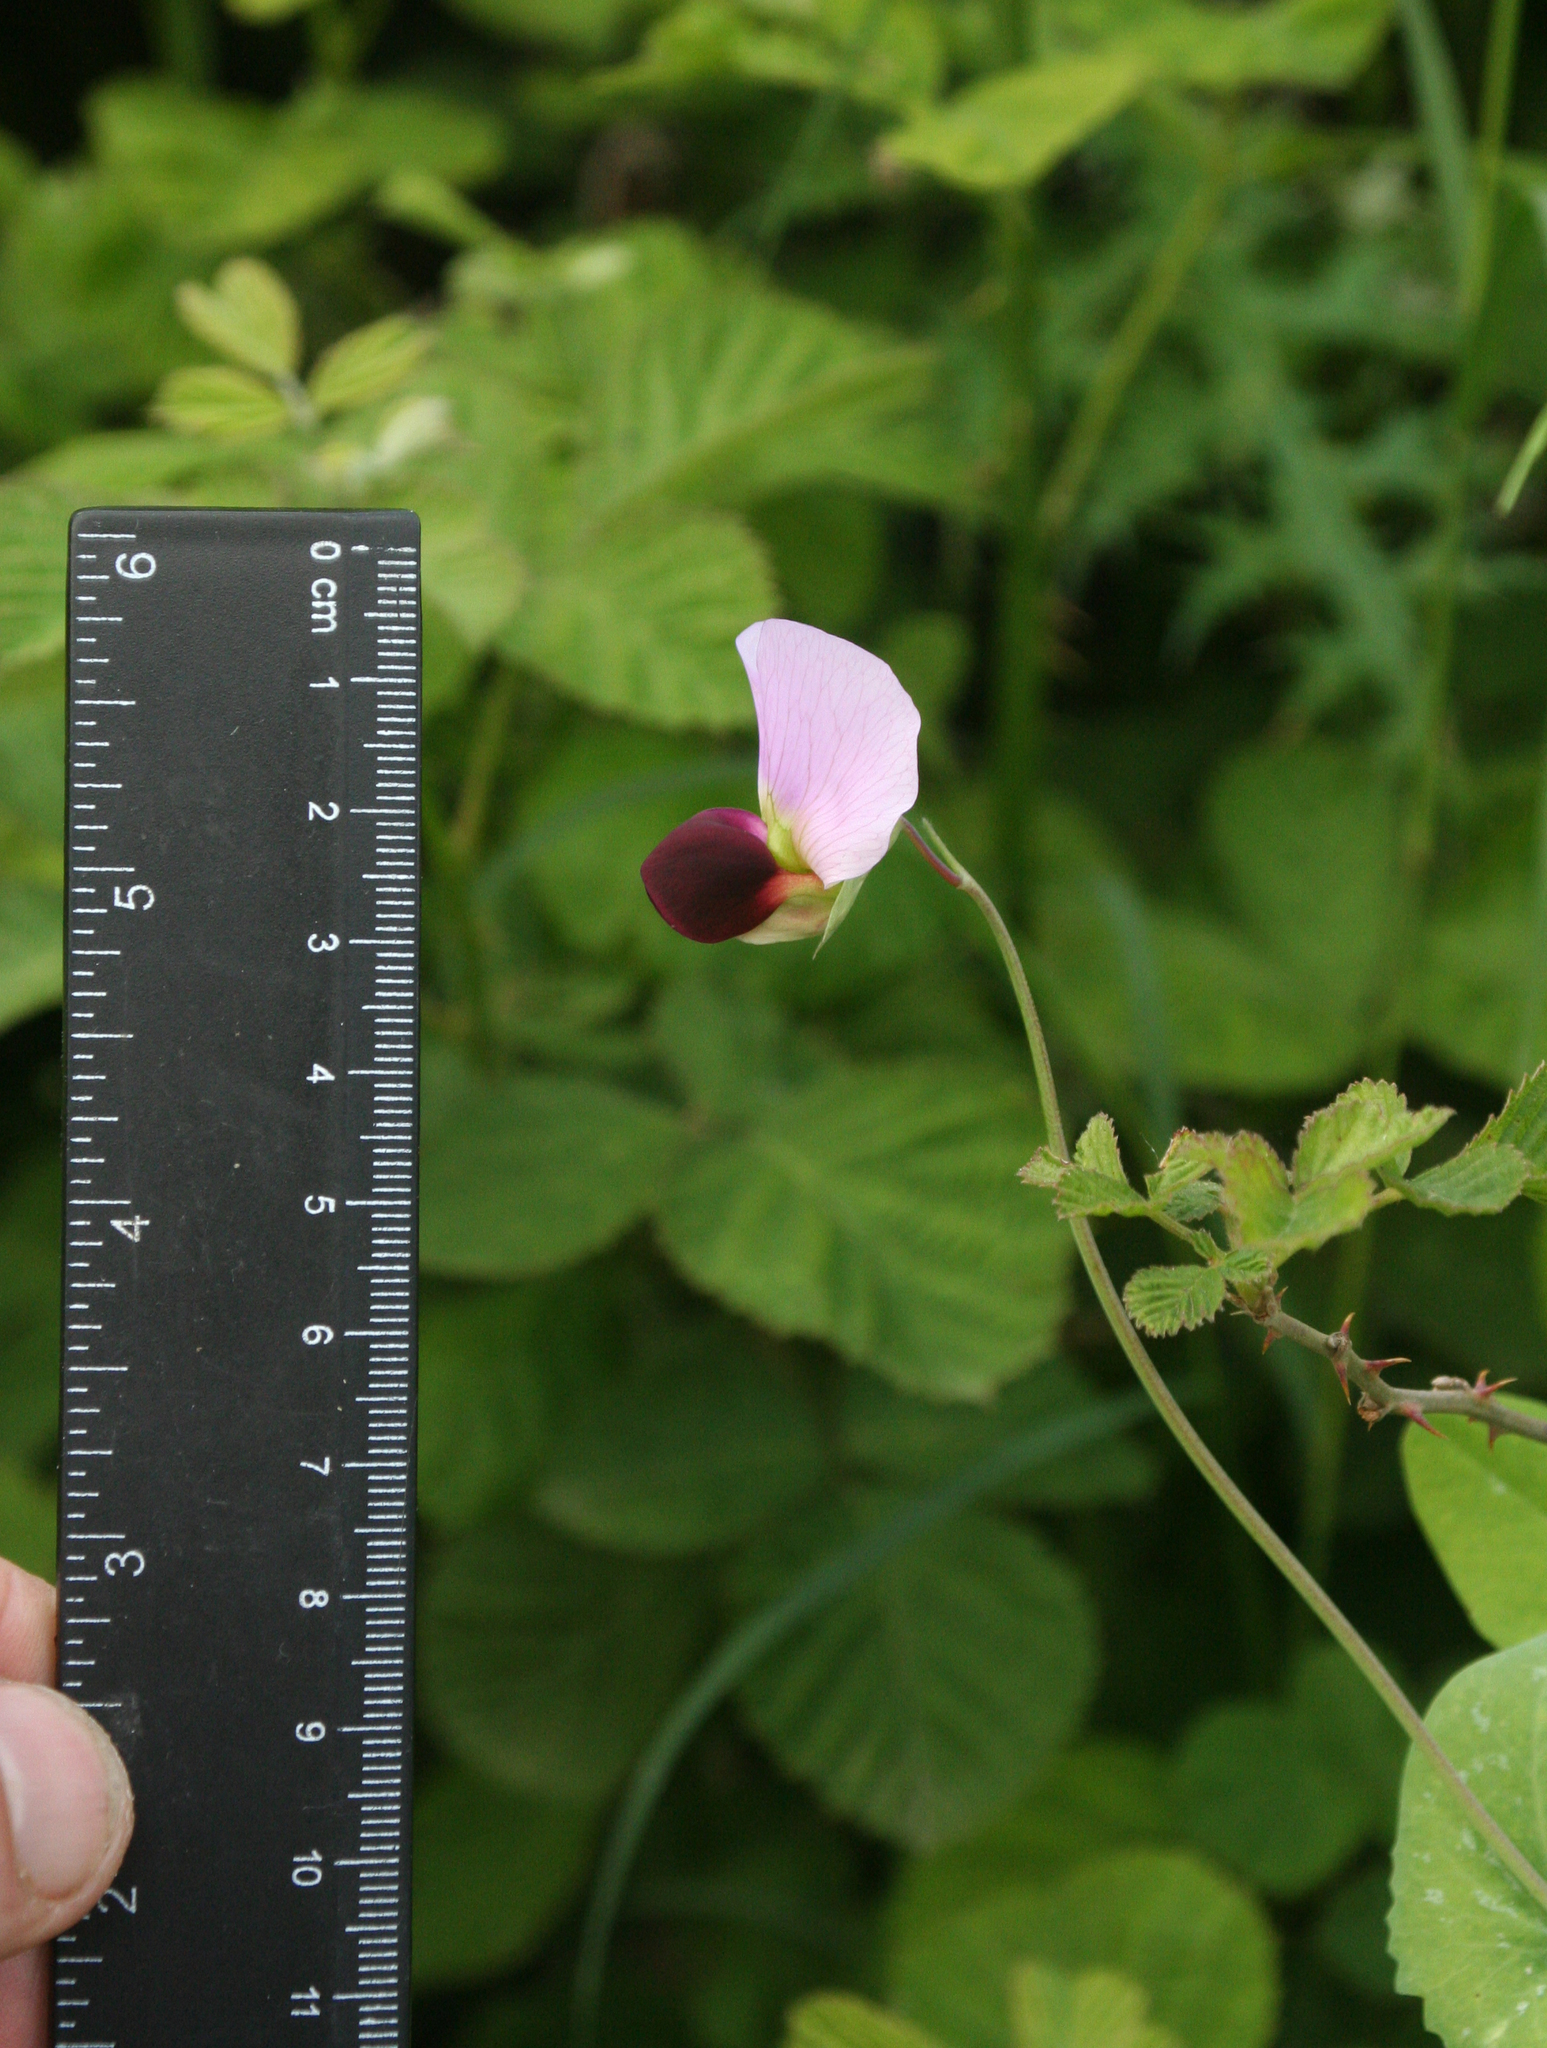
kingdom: Plantae
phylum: Tracheophyta
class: Magnoliopsida
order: Fabales
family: Fabaceae
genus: Lathyrus
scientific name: Lathyrus oleraceus
